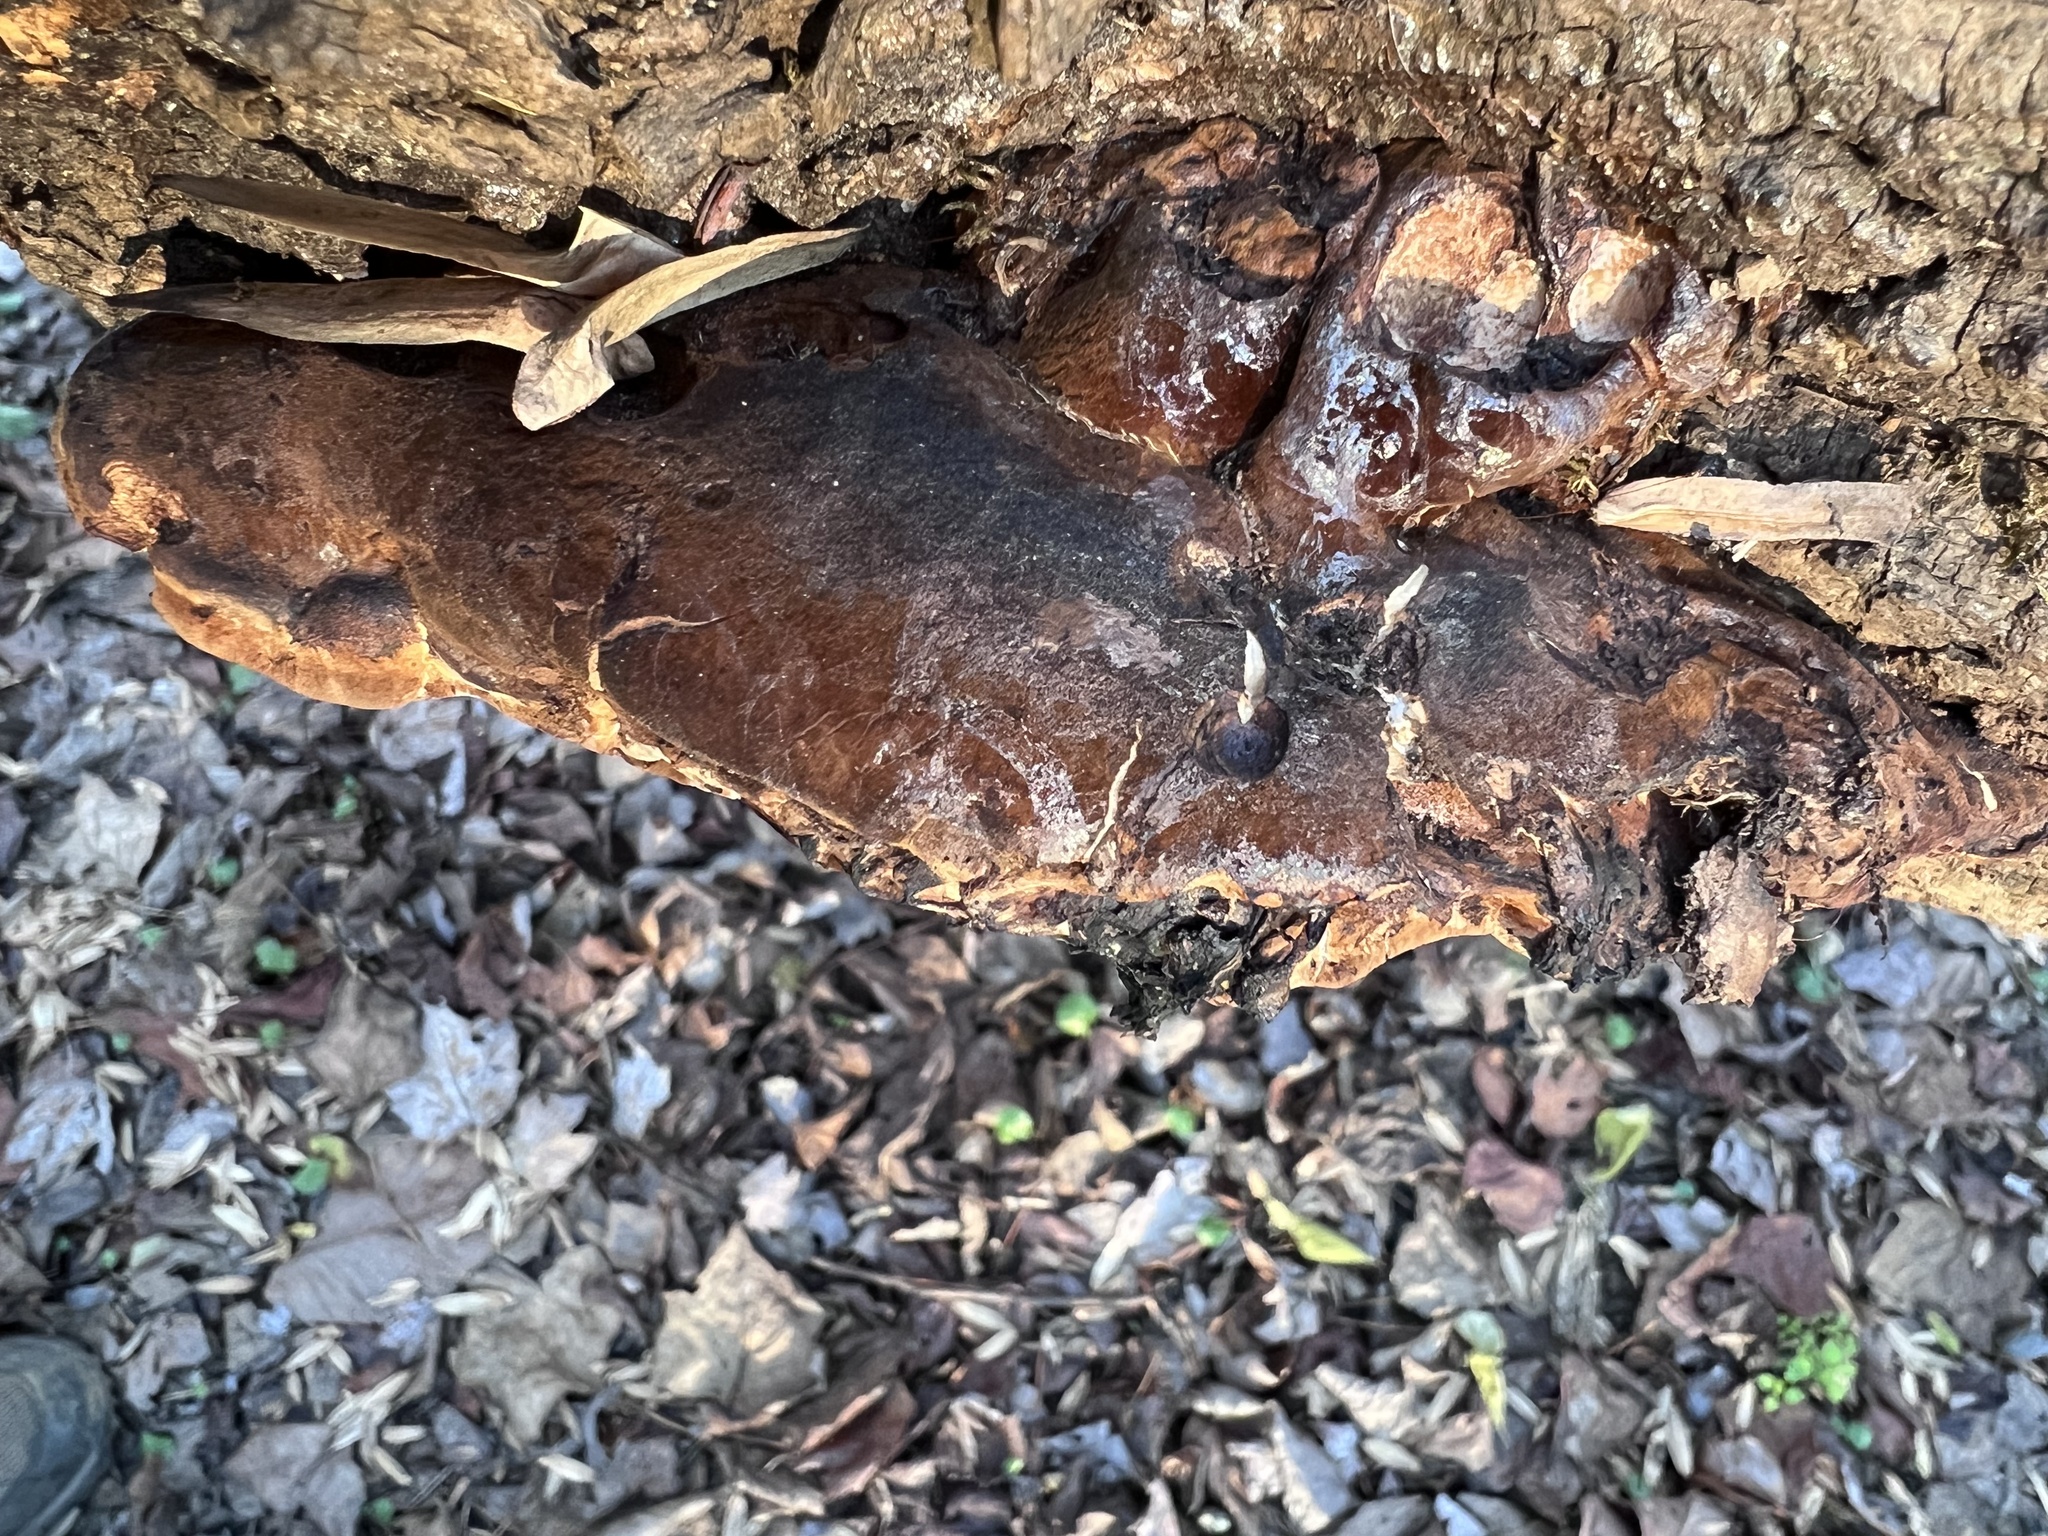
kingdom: Fungi
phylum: Basidiomycota
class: Agaricomycetes
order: Polyporales
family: Ischnodermataceae
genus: Ischnoderma
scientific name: Ischnoderma resinosum
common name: Resinous polypore
